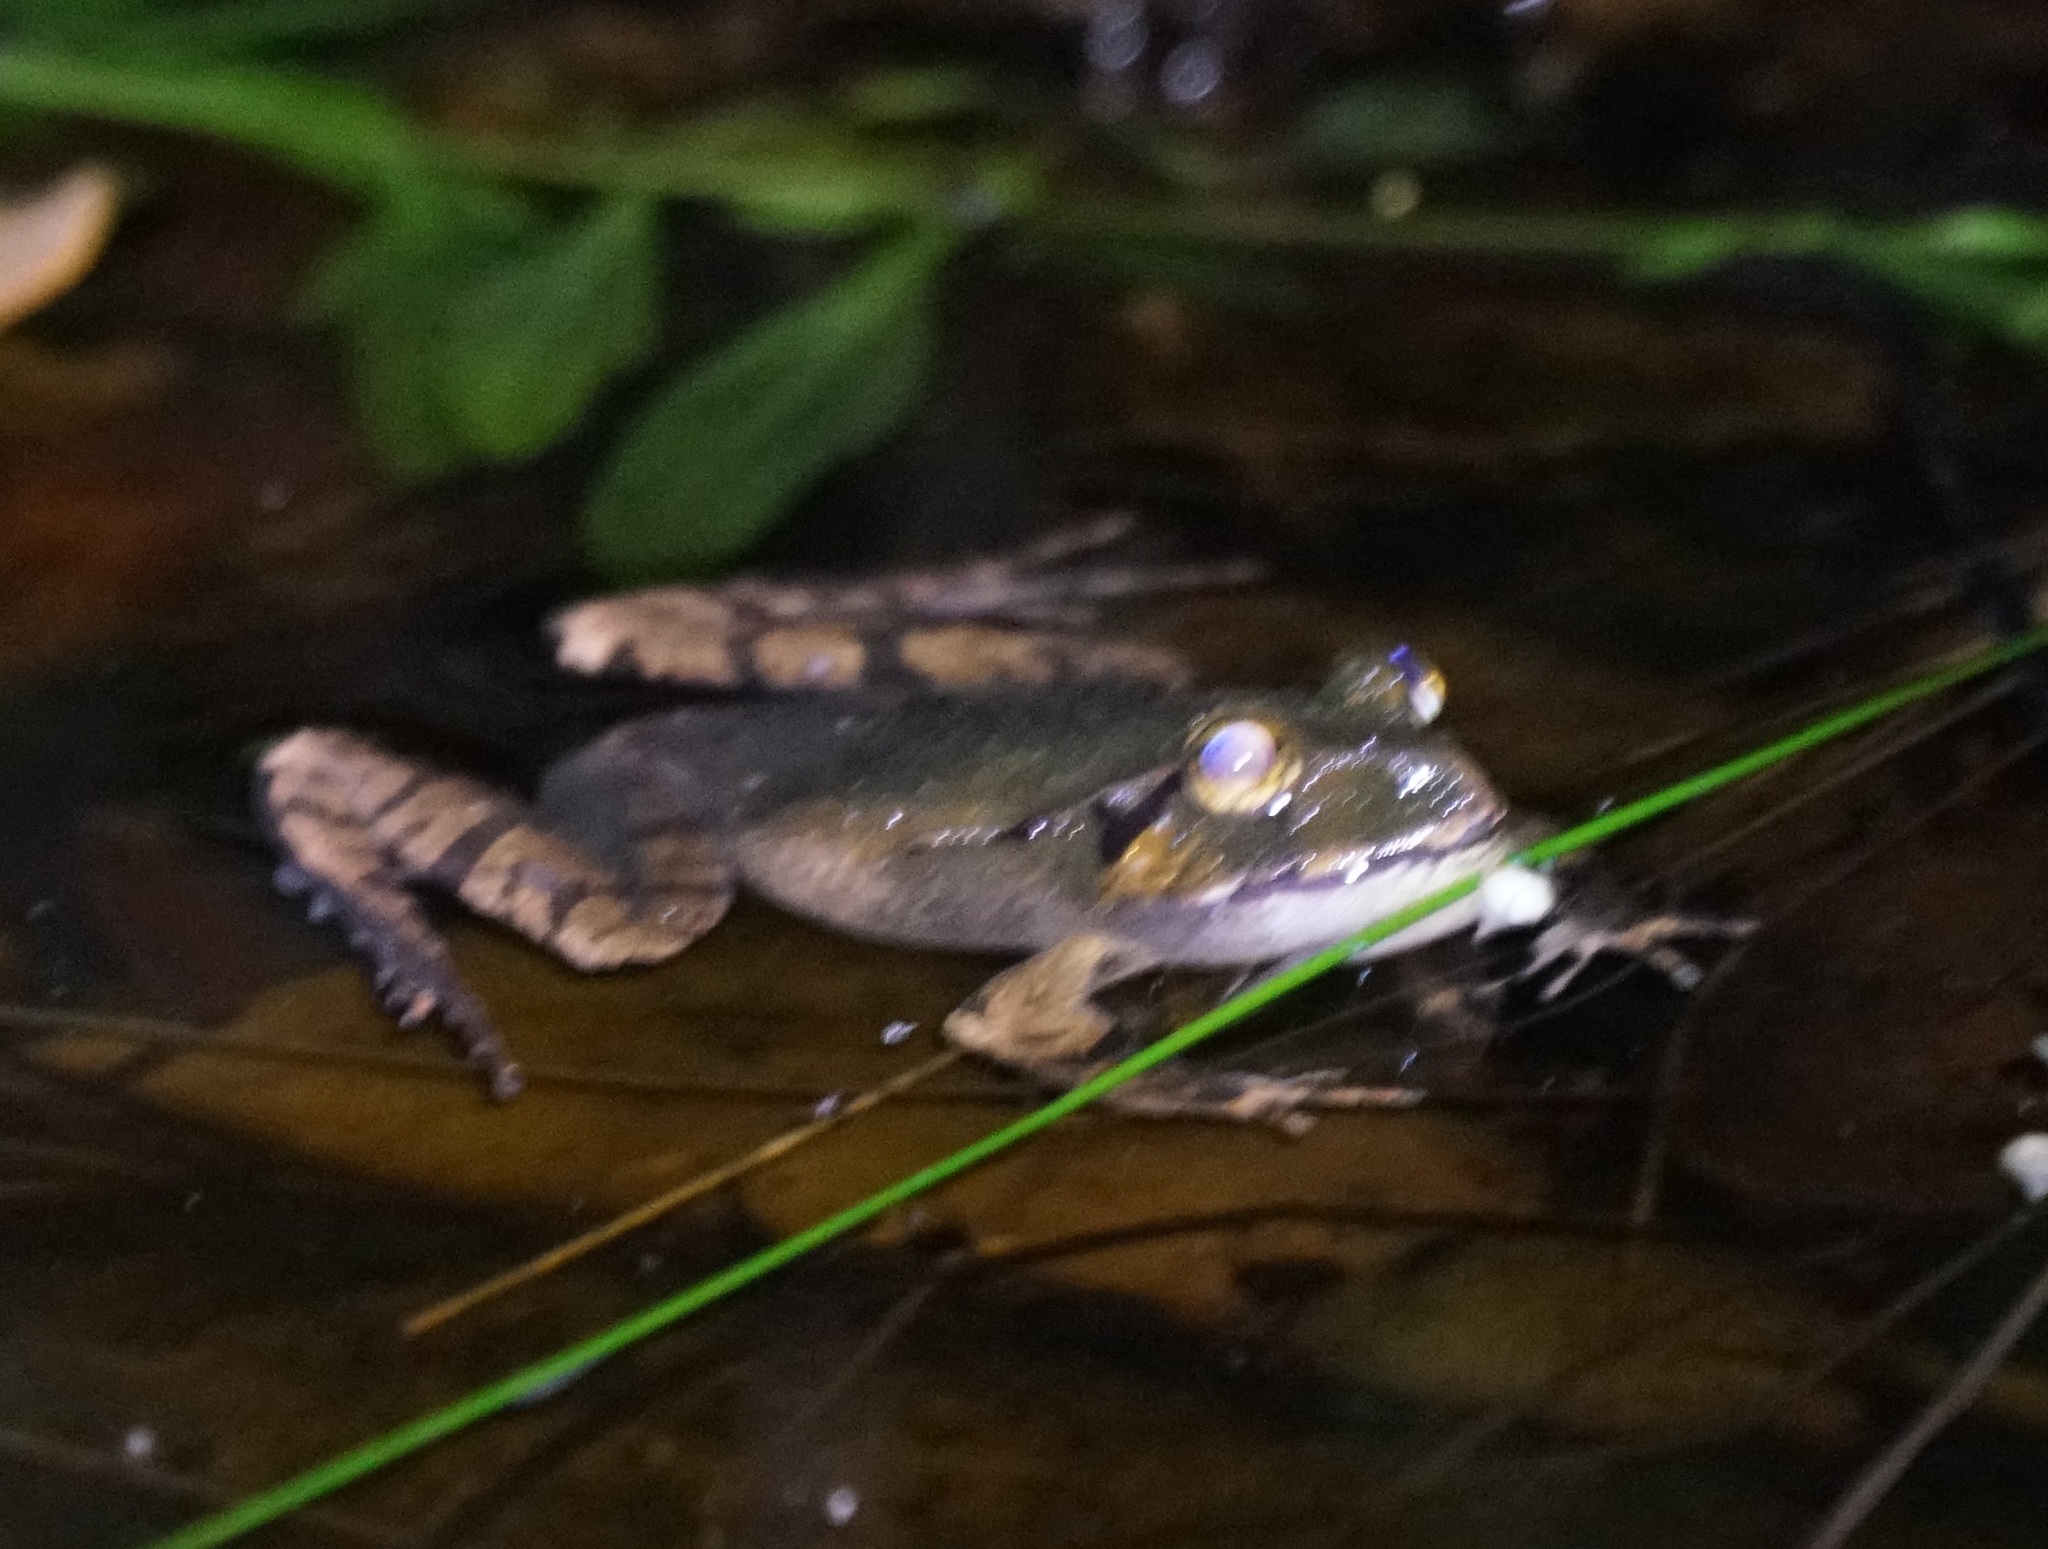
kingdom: Animalia
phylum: Chordata
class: Amphibia
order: Anura
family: Limnodynastidae
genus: Platyplectrum
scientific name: Platyplectrum
